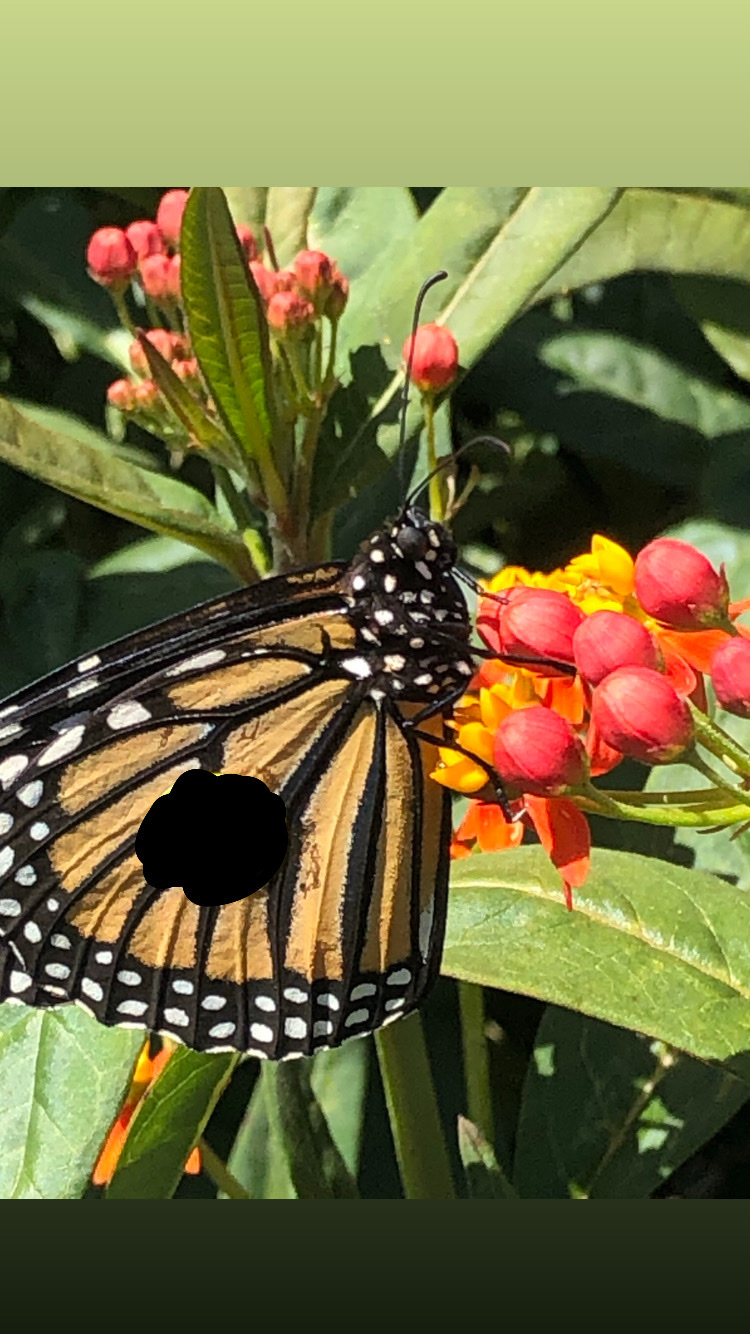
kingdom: Animalia
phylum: Arthropoda
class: Insecta
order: Lepidoptera
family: Nymphalidae
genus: Danaus
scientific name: Danaus plexippus
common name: Monarch
